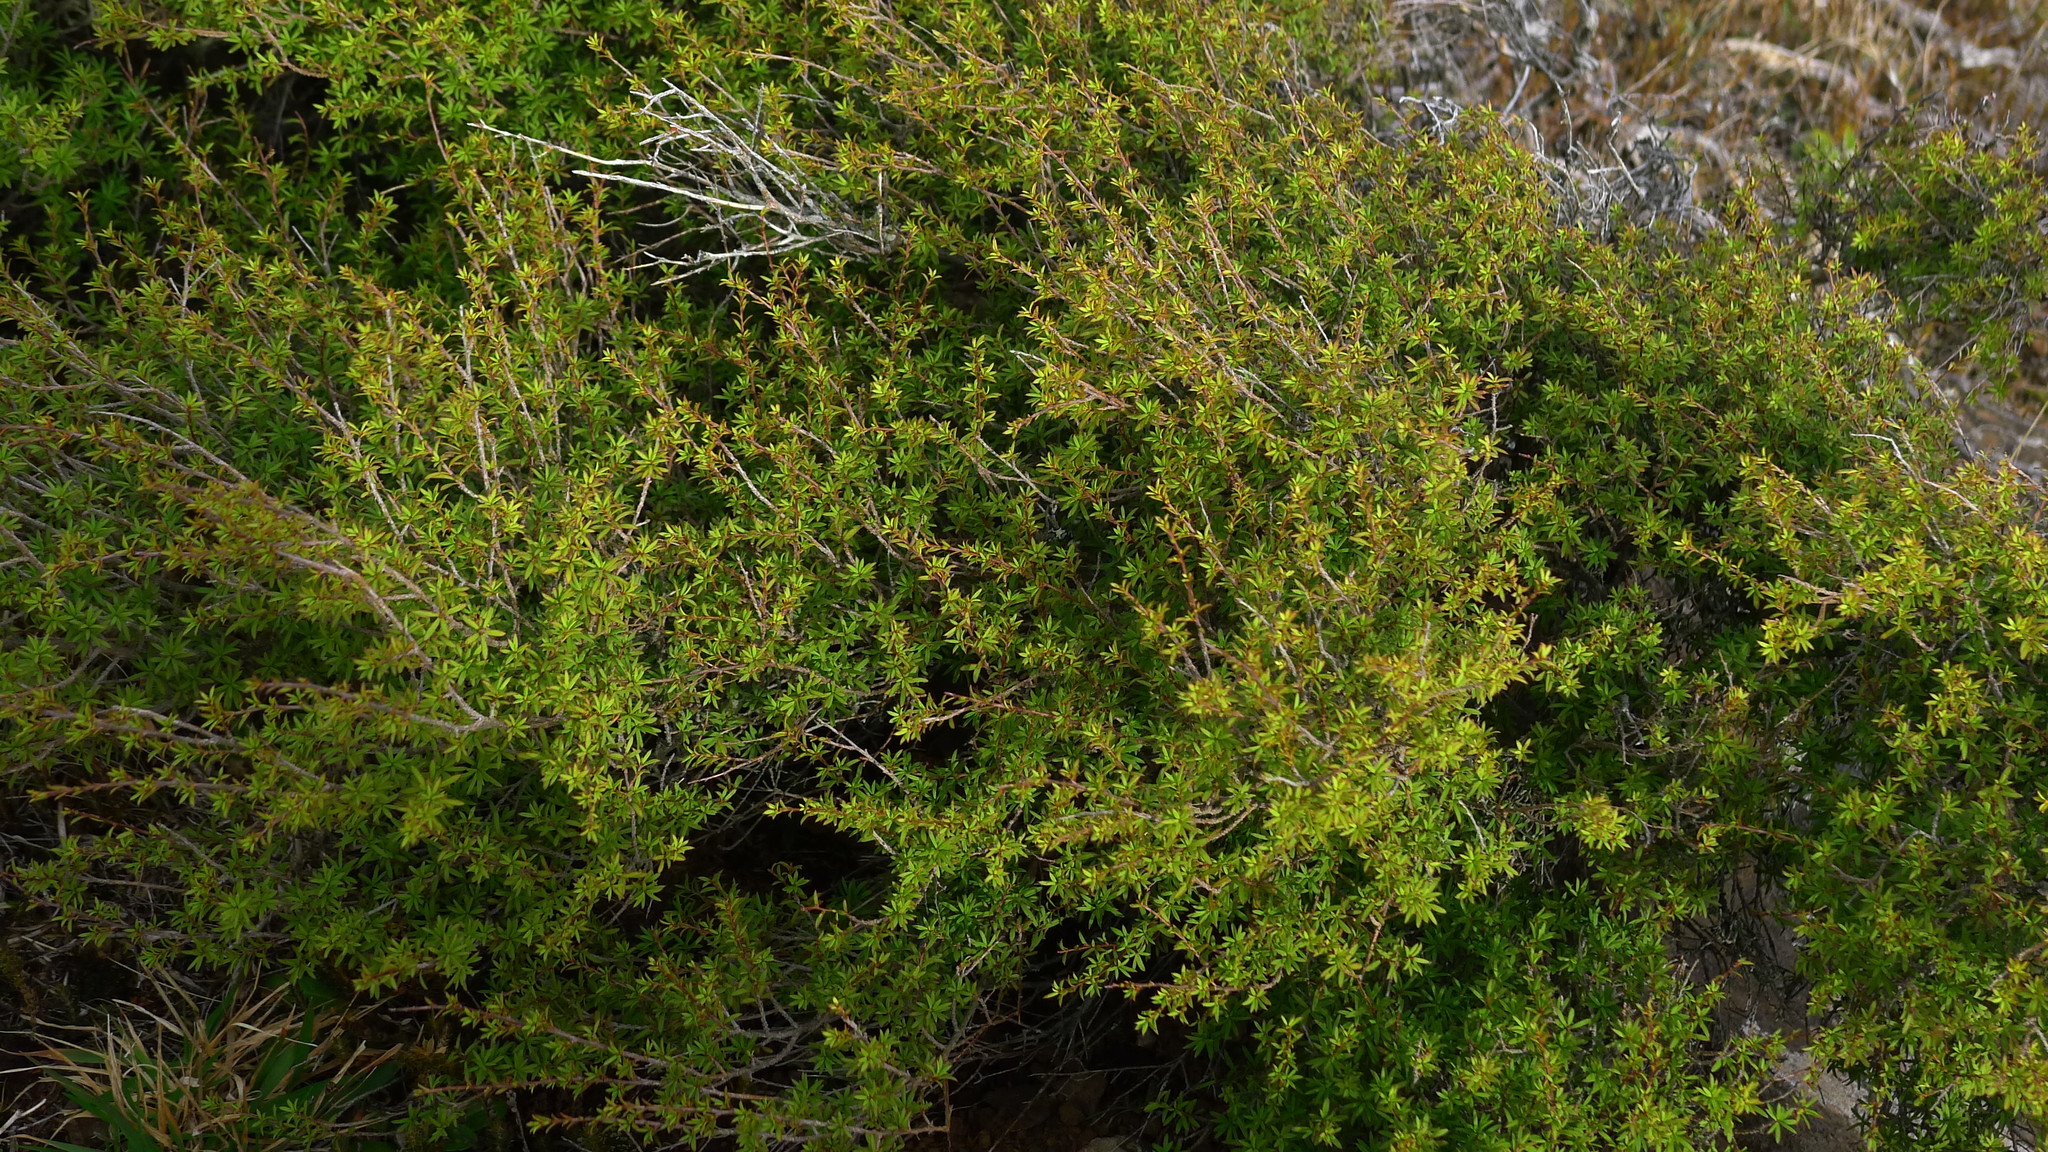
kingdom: Plantae
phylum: Tracheophyta
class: Magnoliopsida
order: Myrtales
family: Myrtaceae
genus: Kunzea
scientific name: Kunzea robusta
